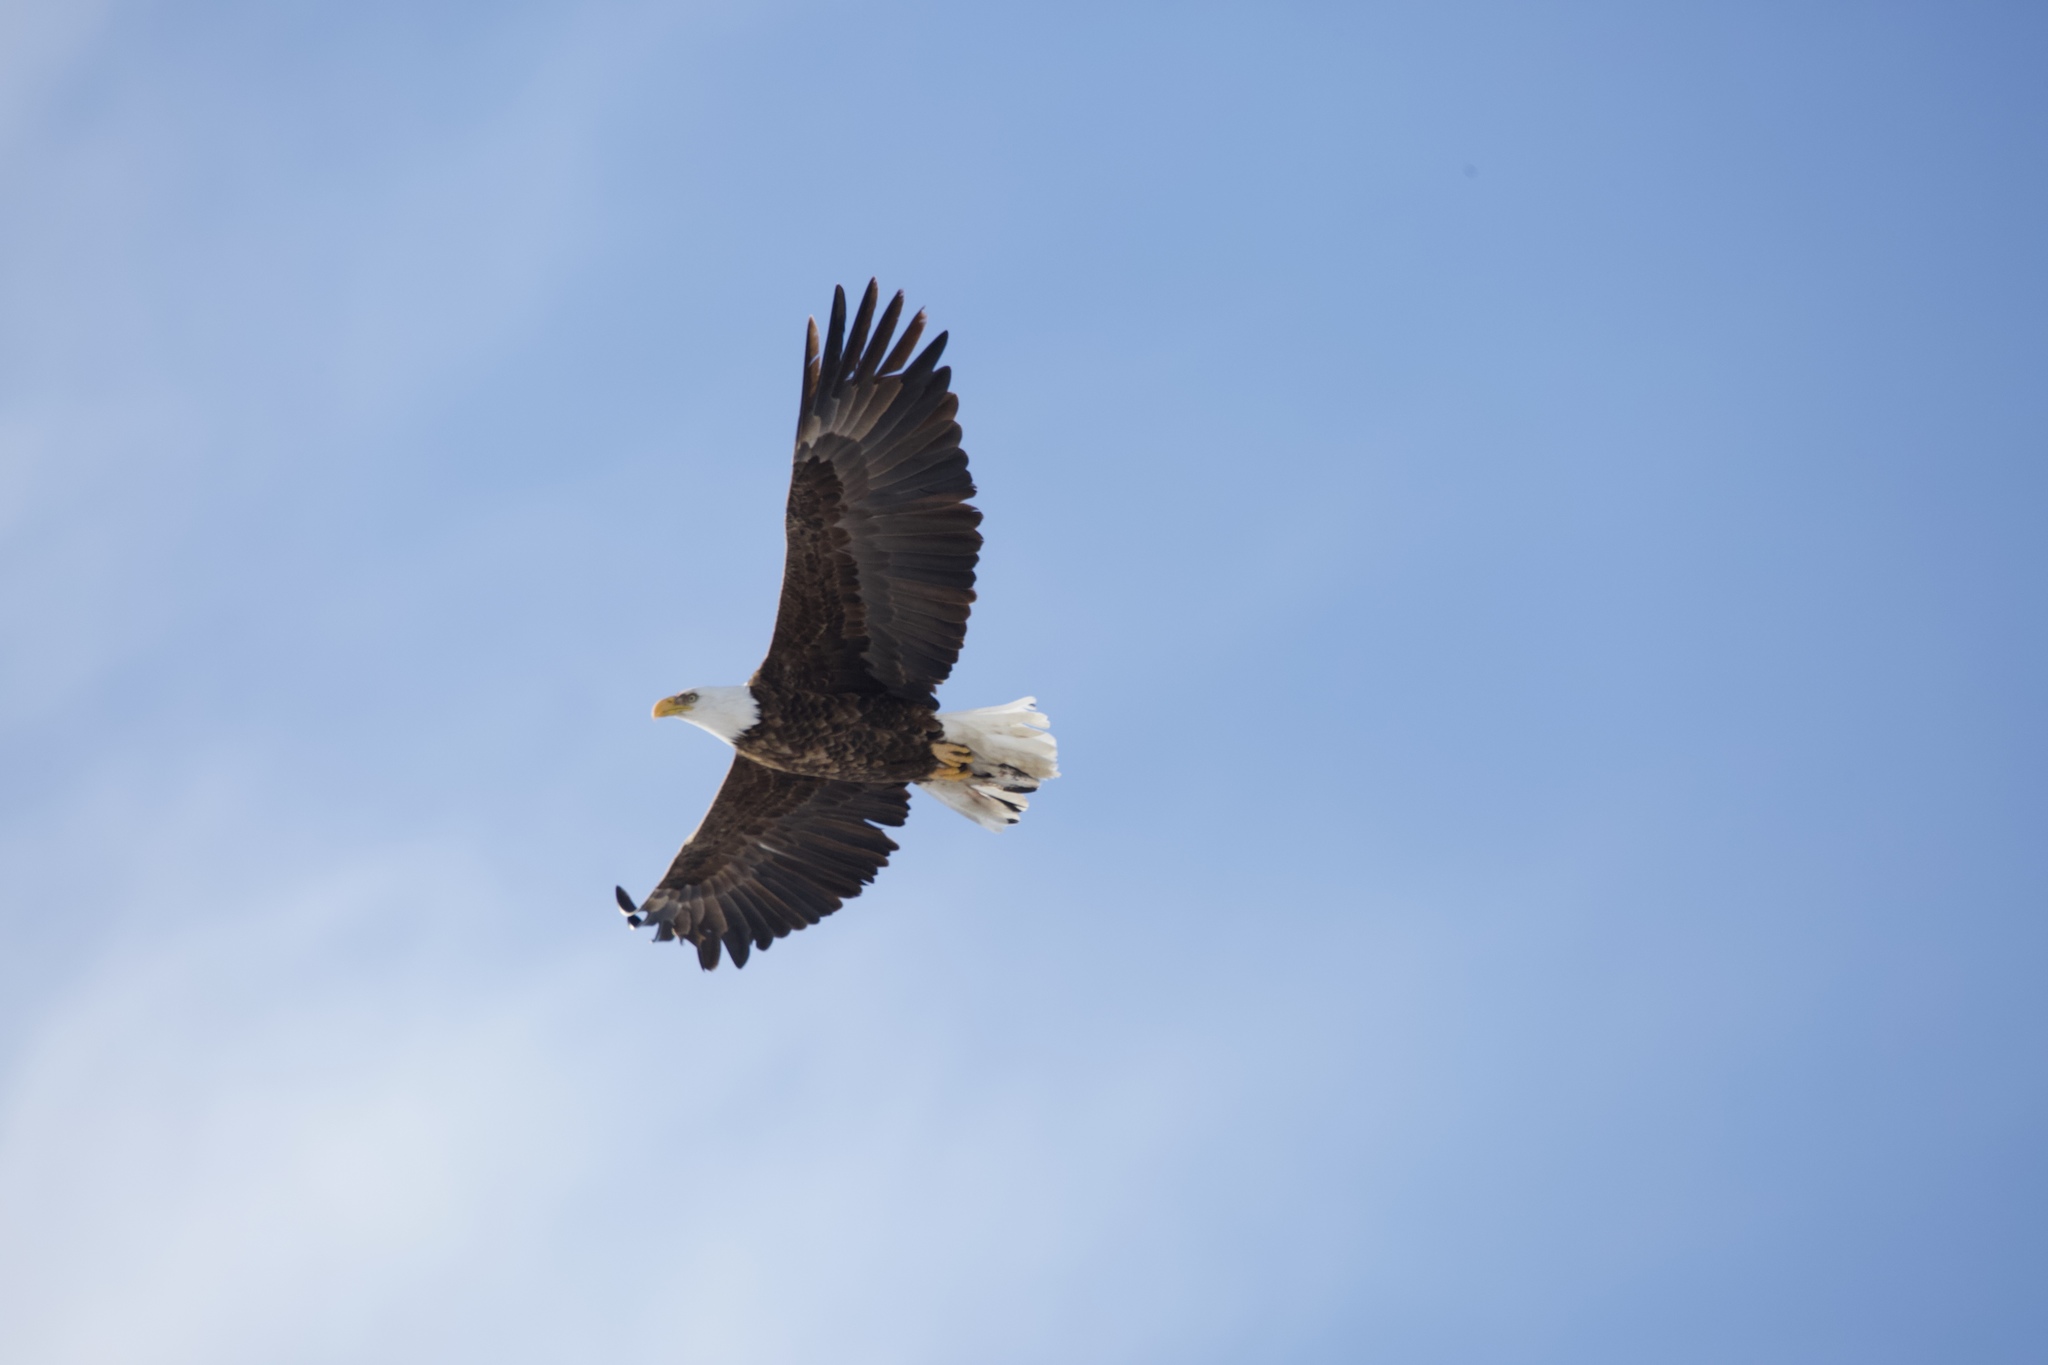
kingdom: Animalia
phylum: Chordata
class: Aves
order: Accipitriformes
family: Accipitridae
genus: Haliaeetus
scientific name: Haliaeetus leucocephalus
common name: Bald eagle
